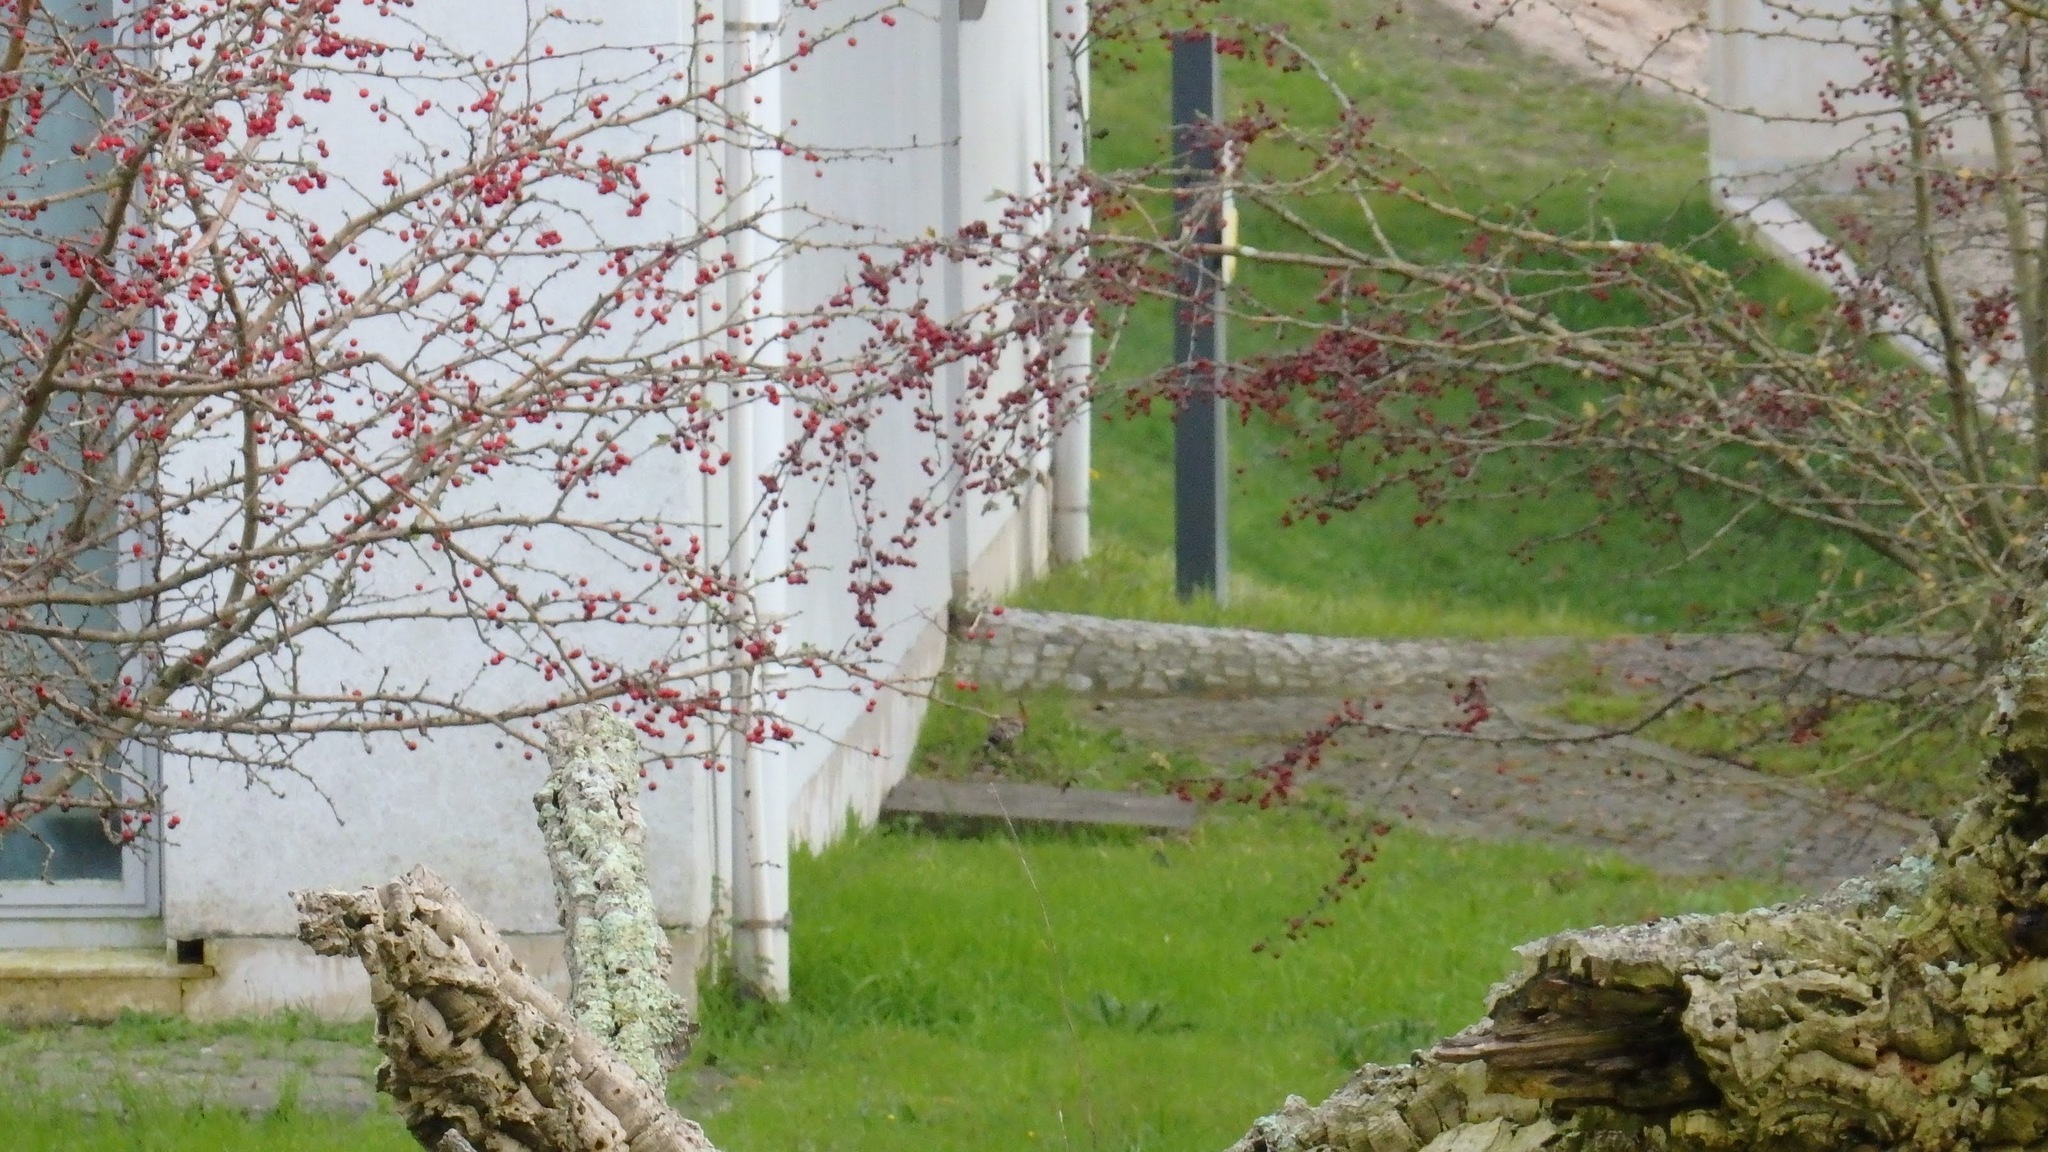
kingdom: Plantae
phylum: Tracheophyta
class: Magnoliopsida
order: Rosales
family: Rosaceae
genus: Crataegus
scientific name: Crataegus monogyna
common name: Hawthorn
